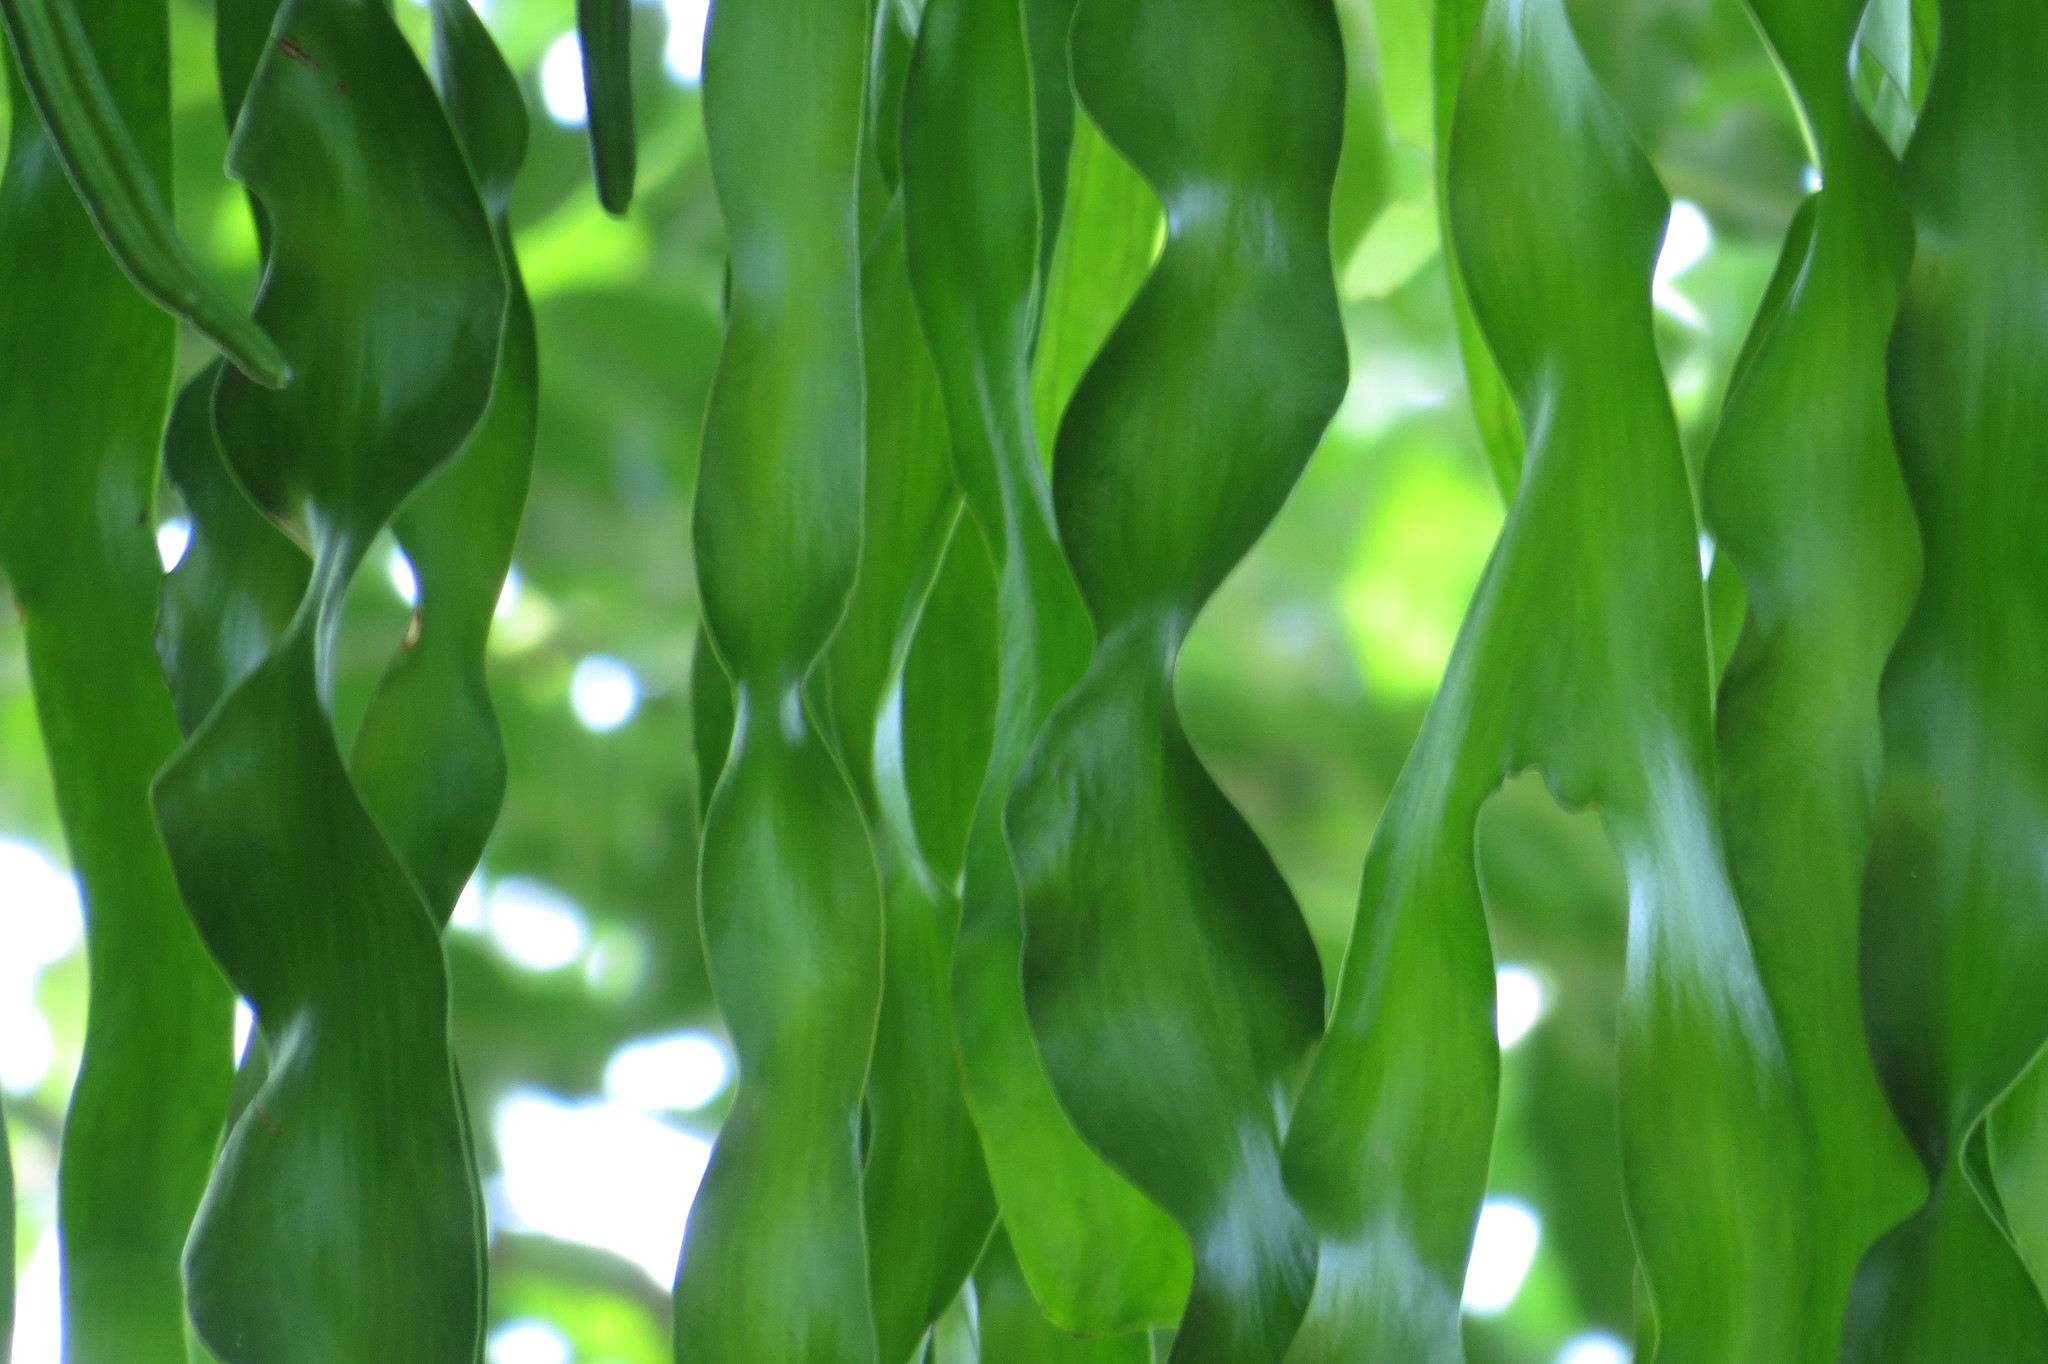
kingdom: Plantae
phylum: Tracheophyta
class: Polypodiopsida
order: Ophioglossales
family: Ophioglossaceae
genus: Ophioderma
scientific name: Ophioderma pendulum
